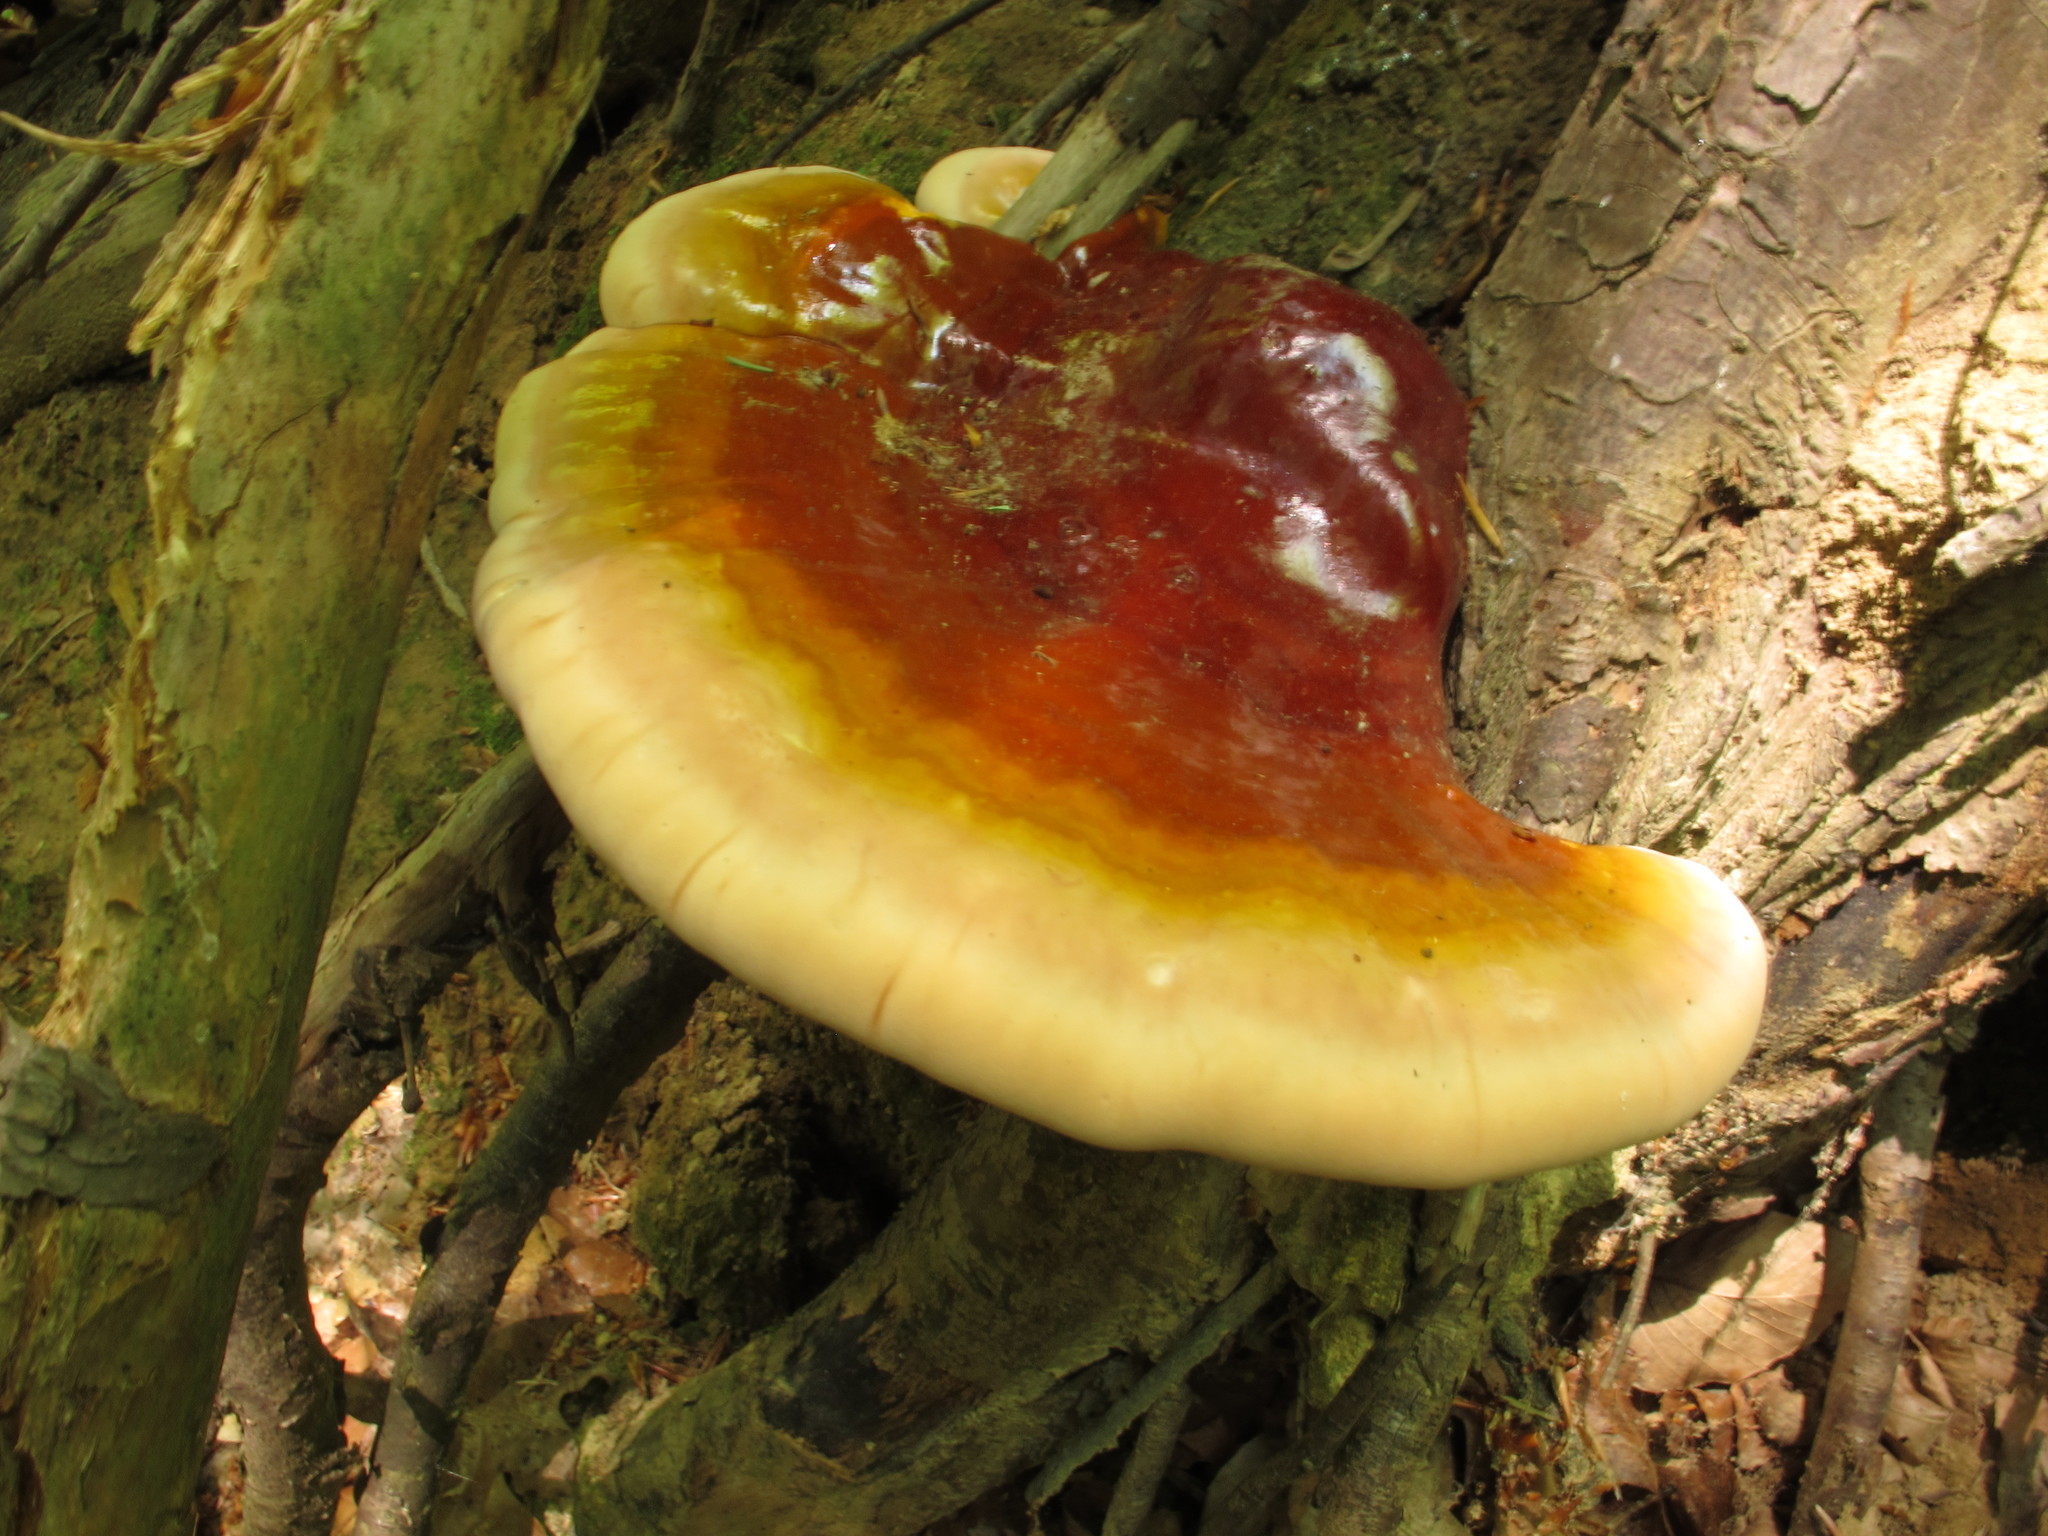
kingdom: Fungi
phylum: Basidiomycota
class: Agaricomycetes
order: Polyporales
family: Polyporaceae
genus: Ganoderma
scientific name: Ganoderma tsugae
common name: Hemlock varnish shelf
